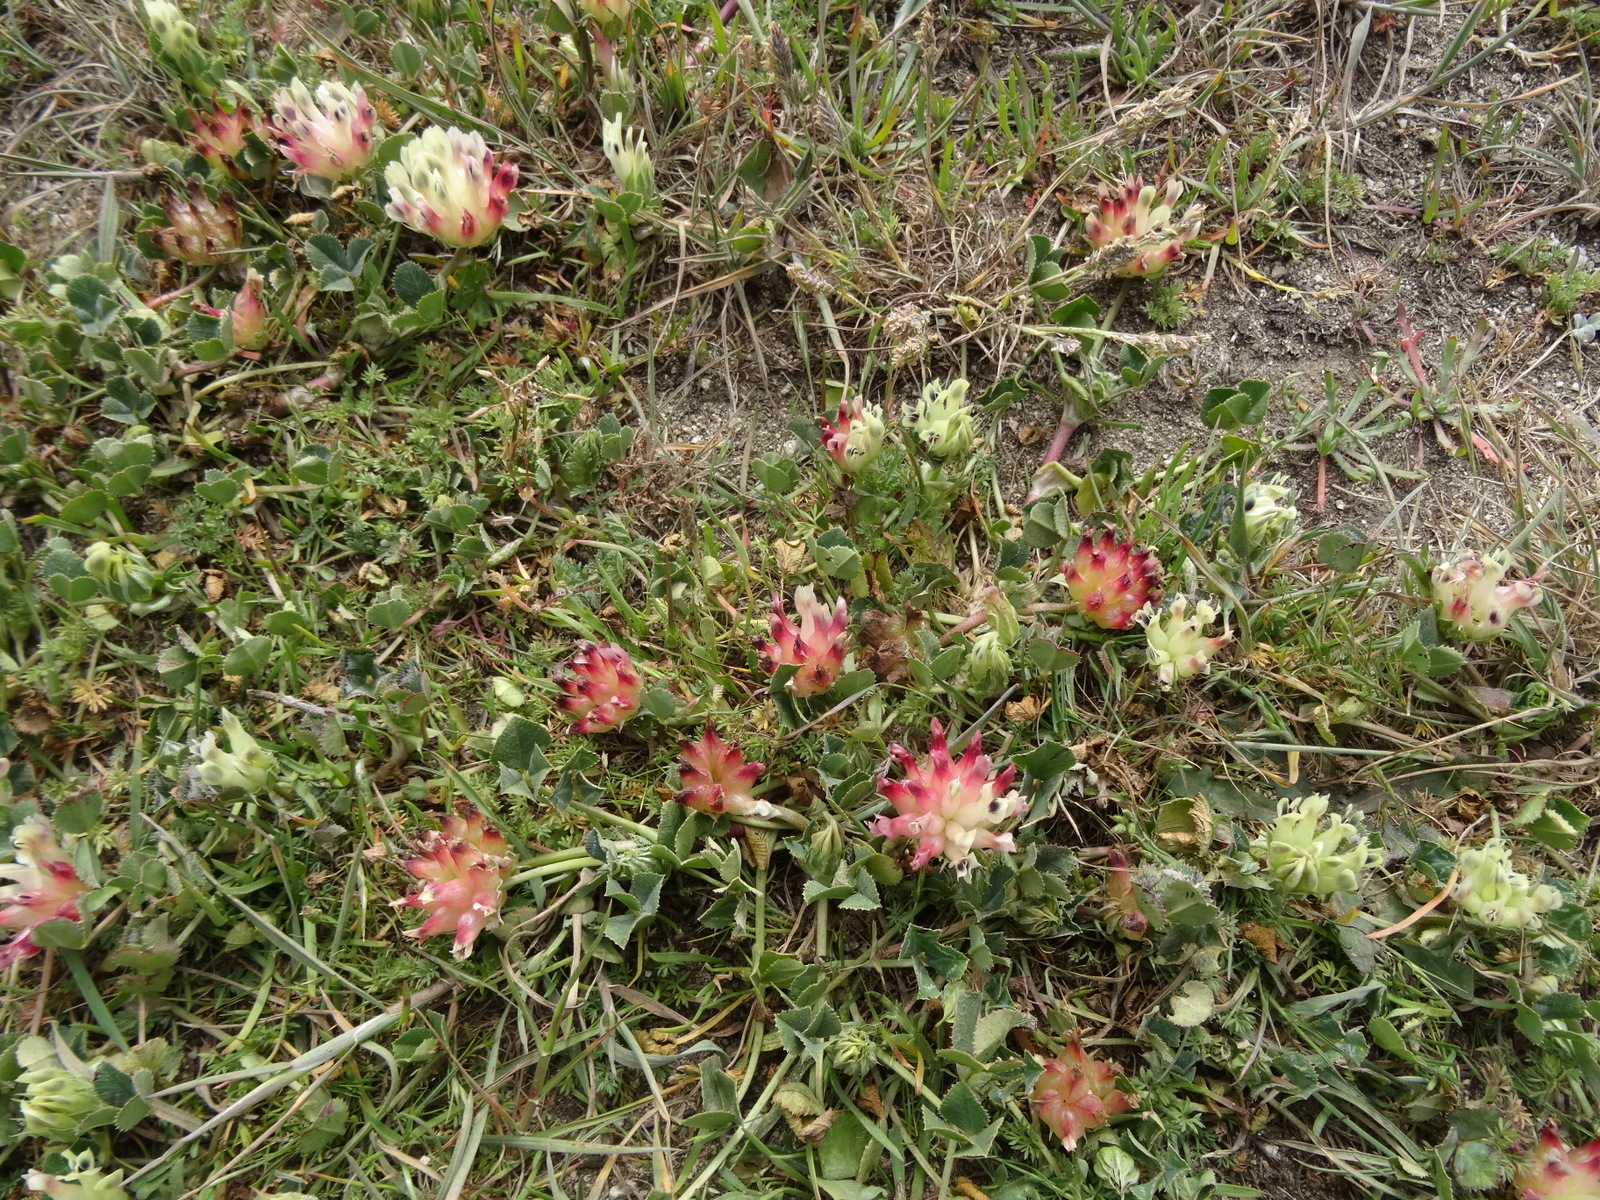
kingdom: Plantae
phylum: Tracheophyta
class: Magnoliopsida
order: Fabales
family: Fabaceae
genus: Trifolium
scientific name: Trifolium fucatum
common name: Puff clover
